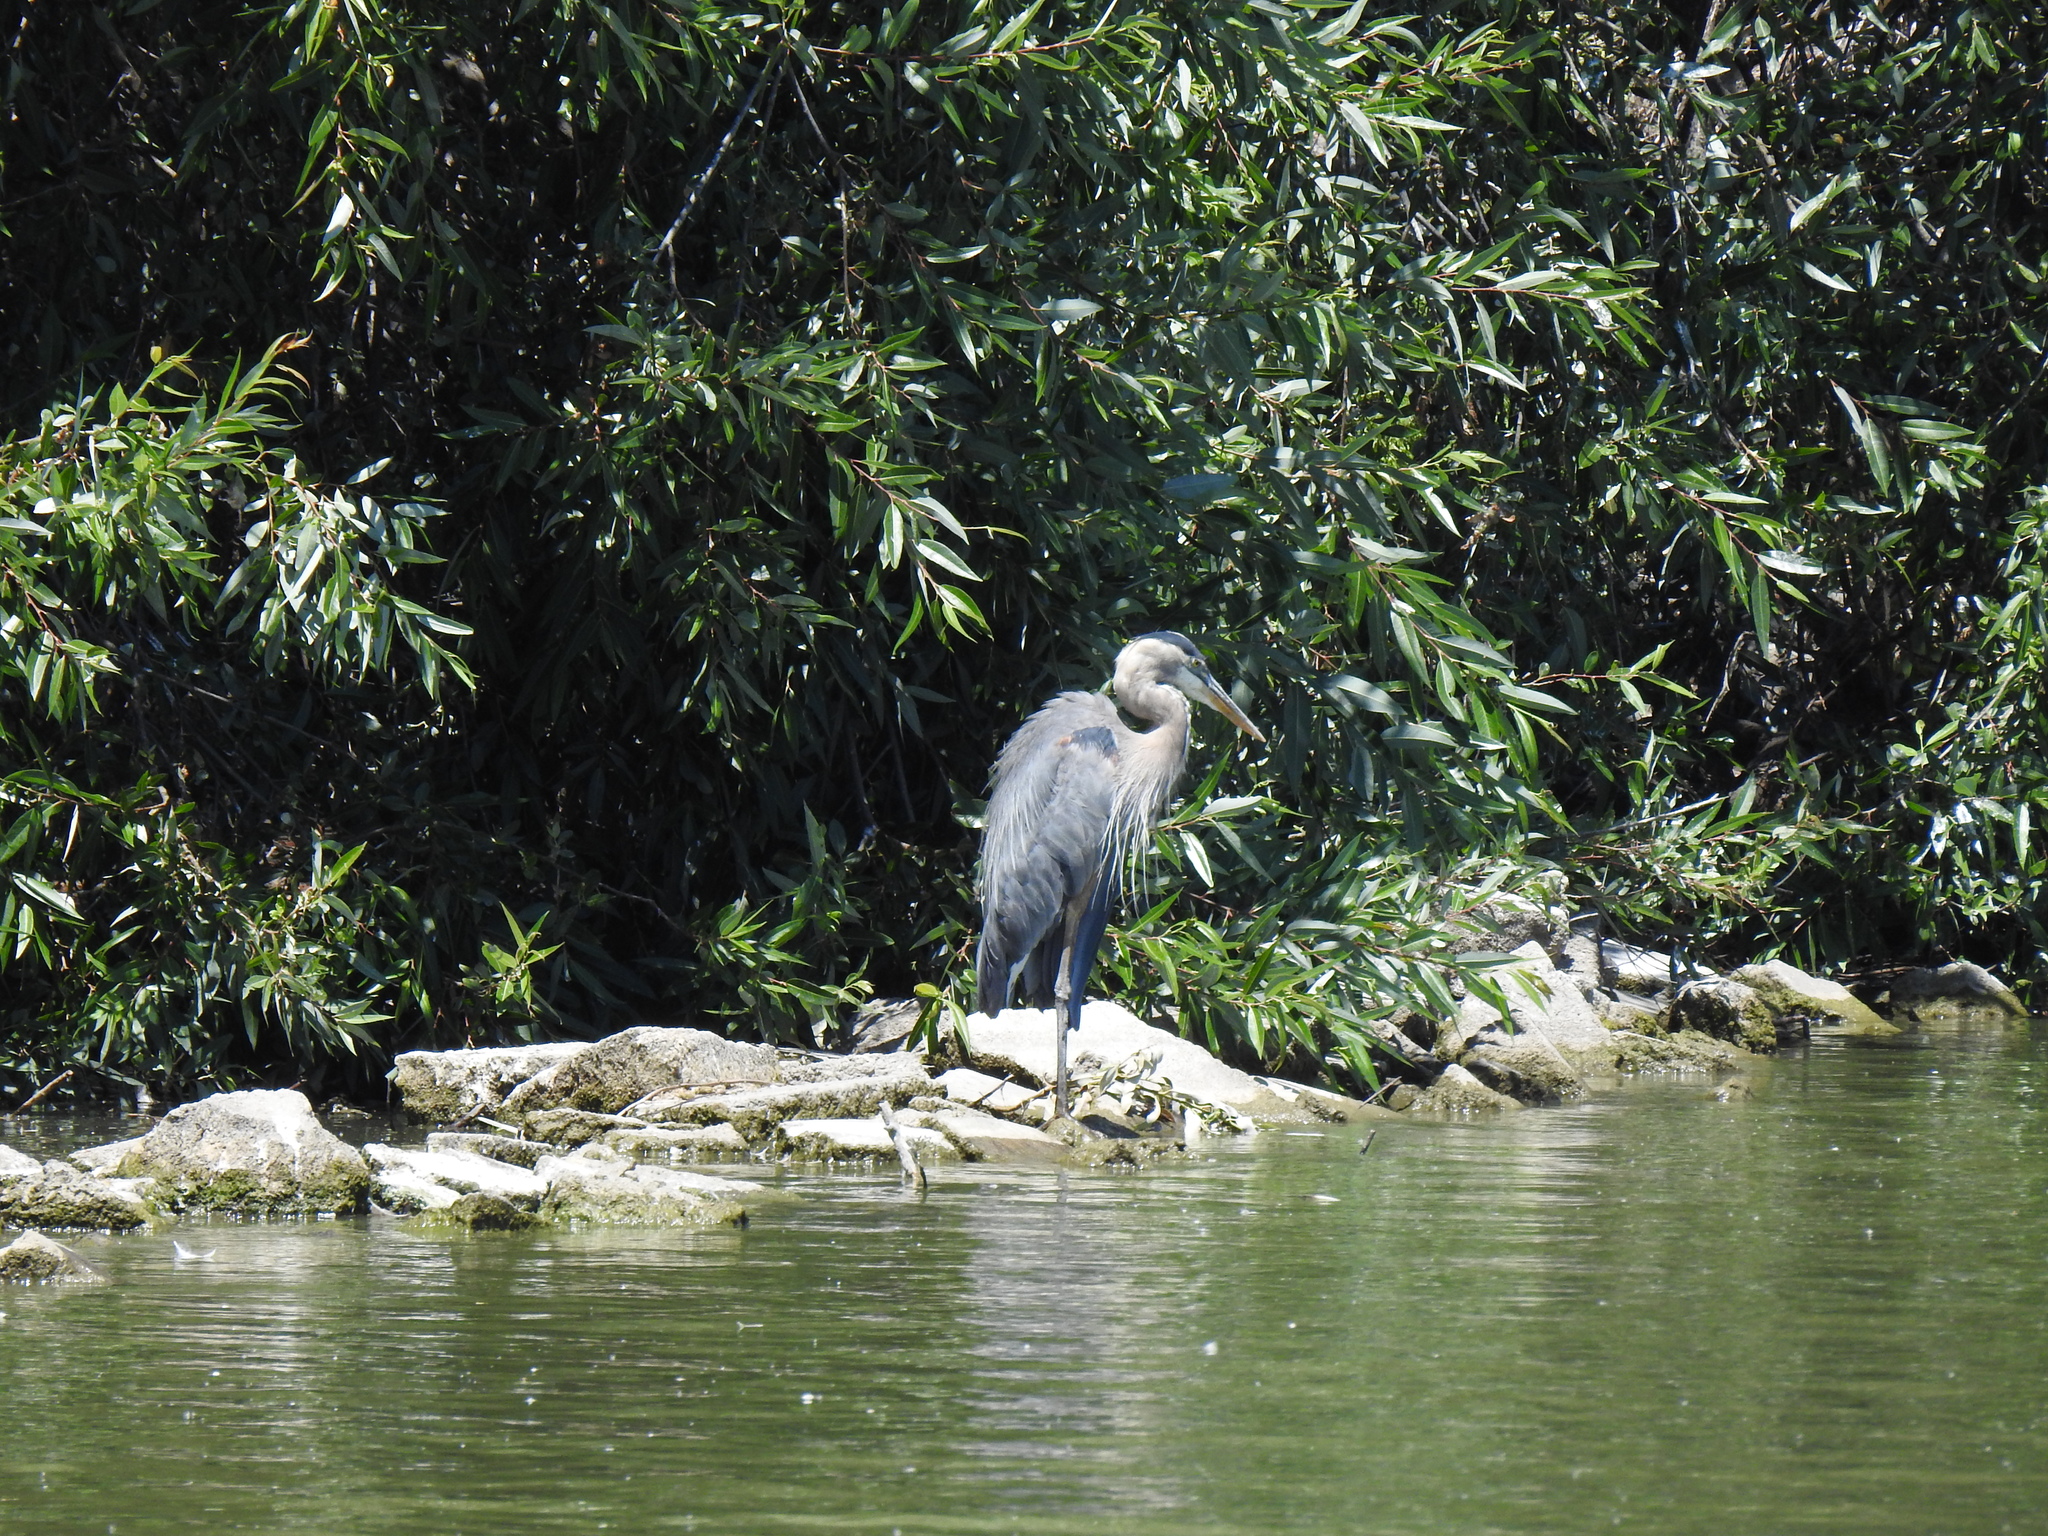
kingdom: Animalia
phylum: Chordata
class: Aves
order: Pelecaniformes
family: Ardeidae
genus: Ardea
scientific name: Ardea herodias
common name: Great blue heron
